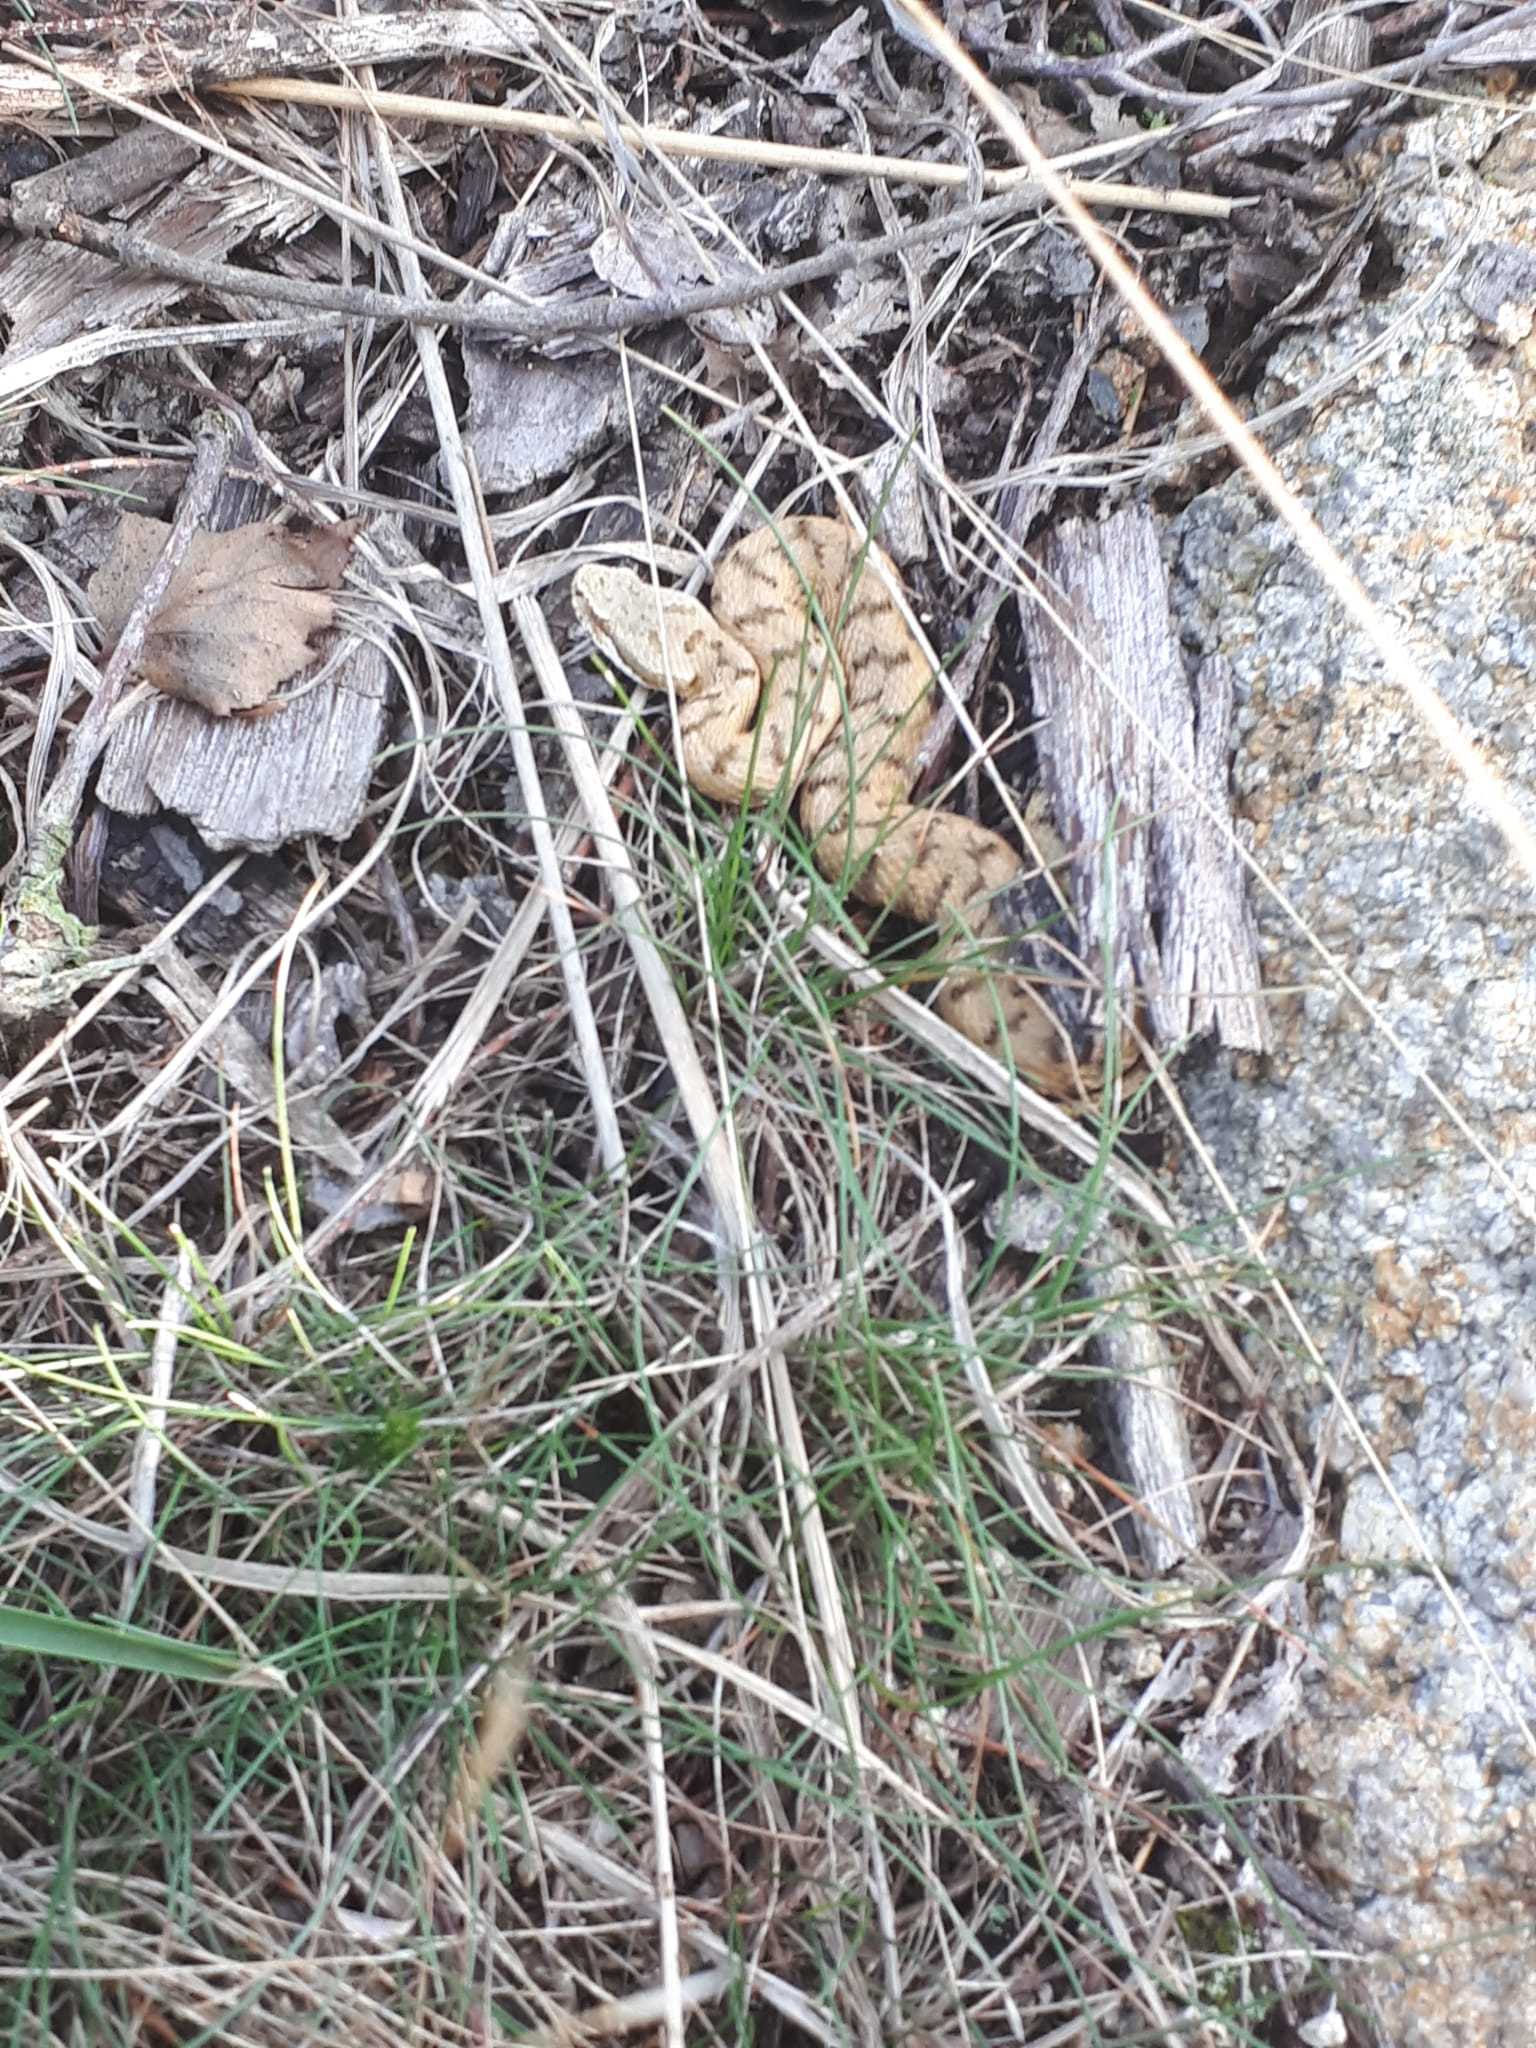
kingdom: Animalia
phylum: Chordata
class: Squamata
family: Viperidae
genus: Vipera
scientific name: Vipera aspis
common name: Asp viper
